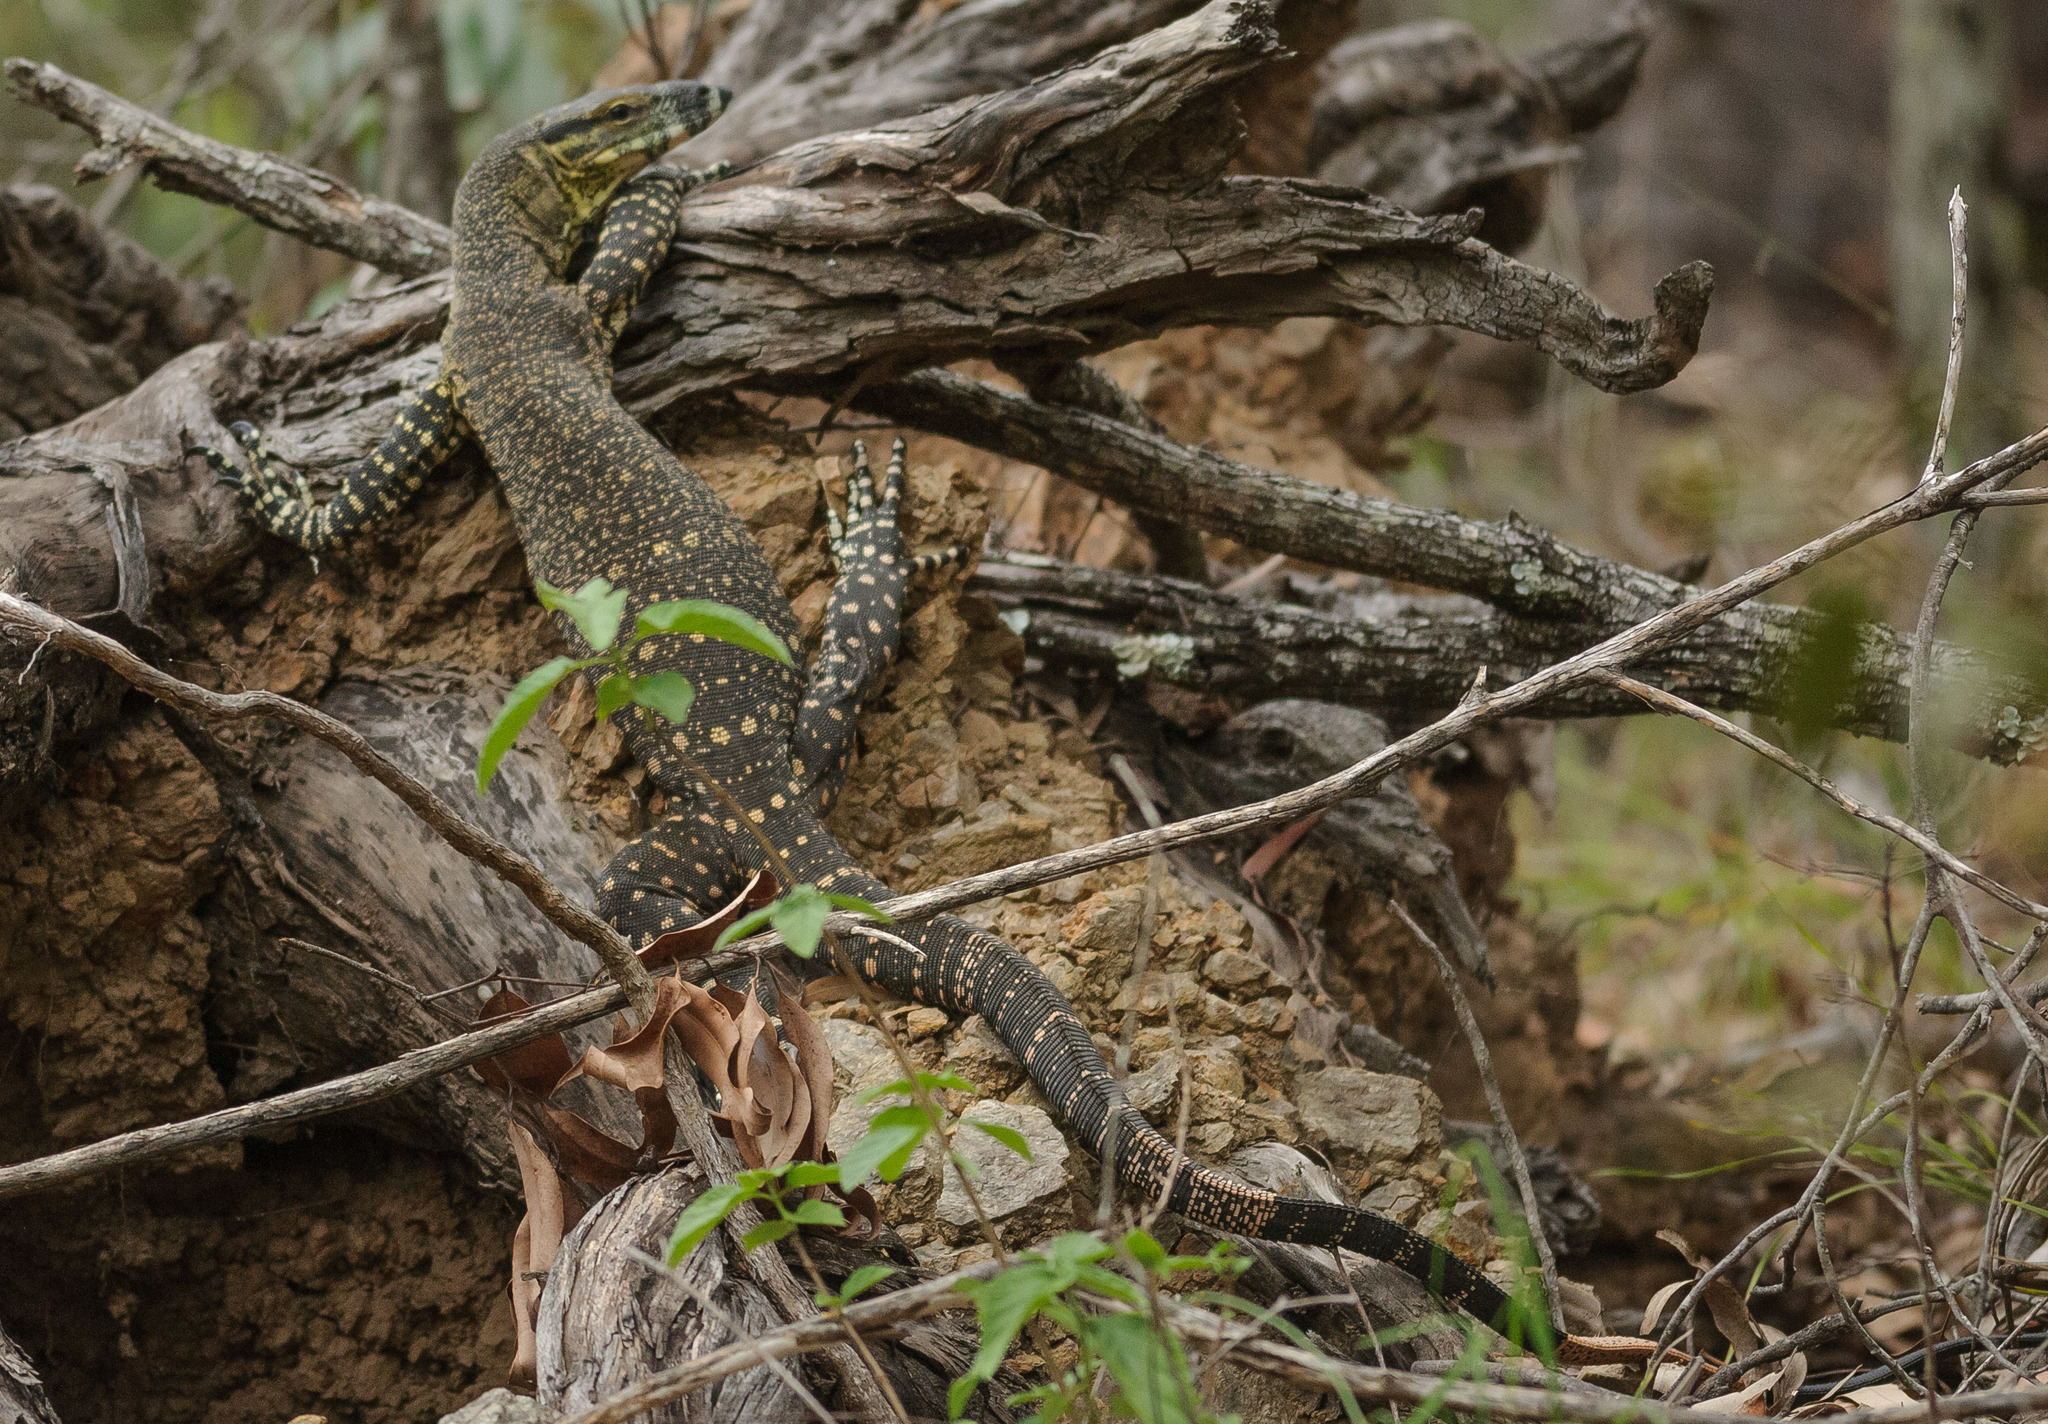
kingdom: Animalia
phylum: Chordata
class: Squamata
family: Varanidae
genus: Varanus
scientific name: Varanus varius
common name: Lace monitor
